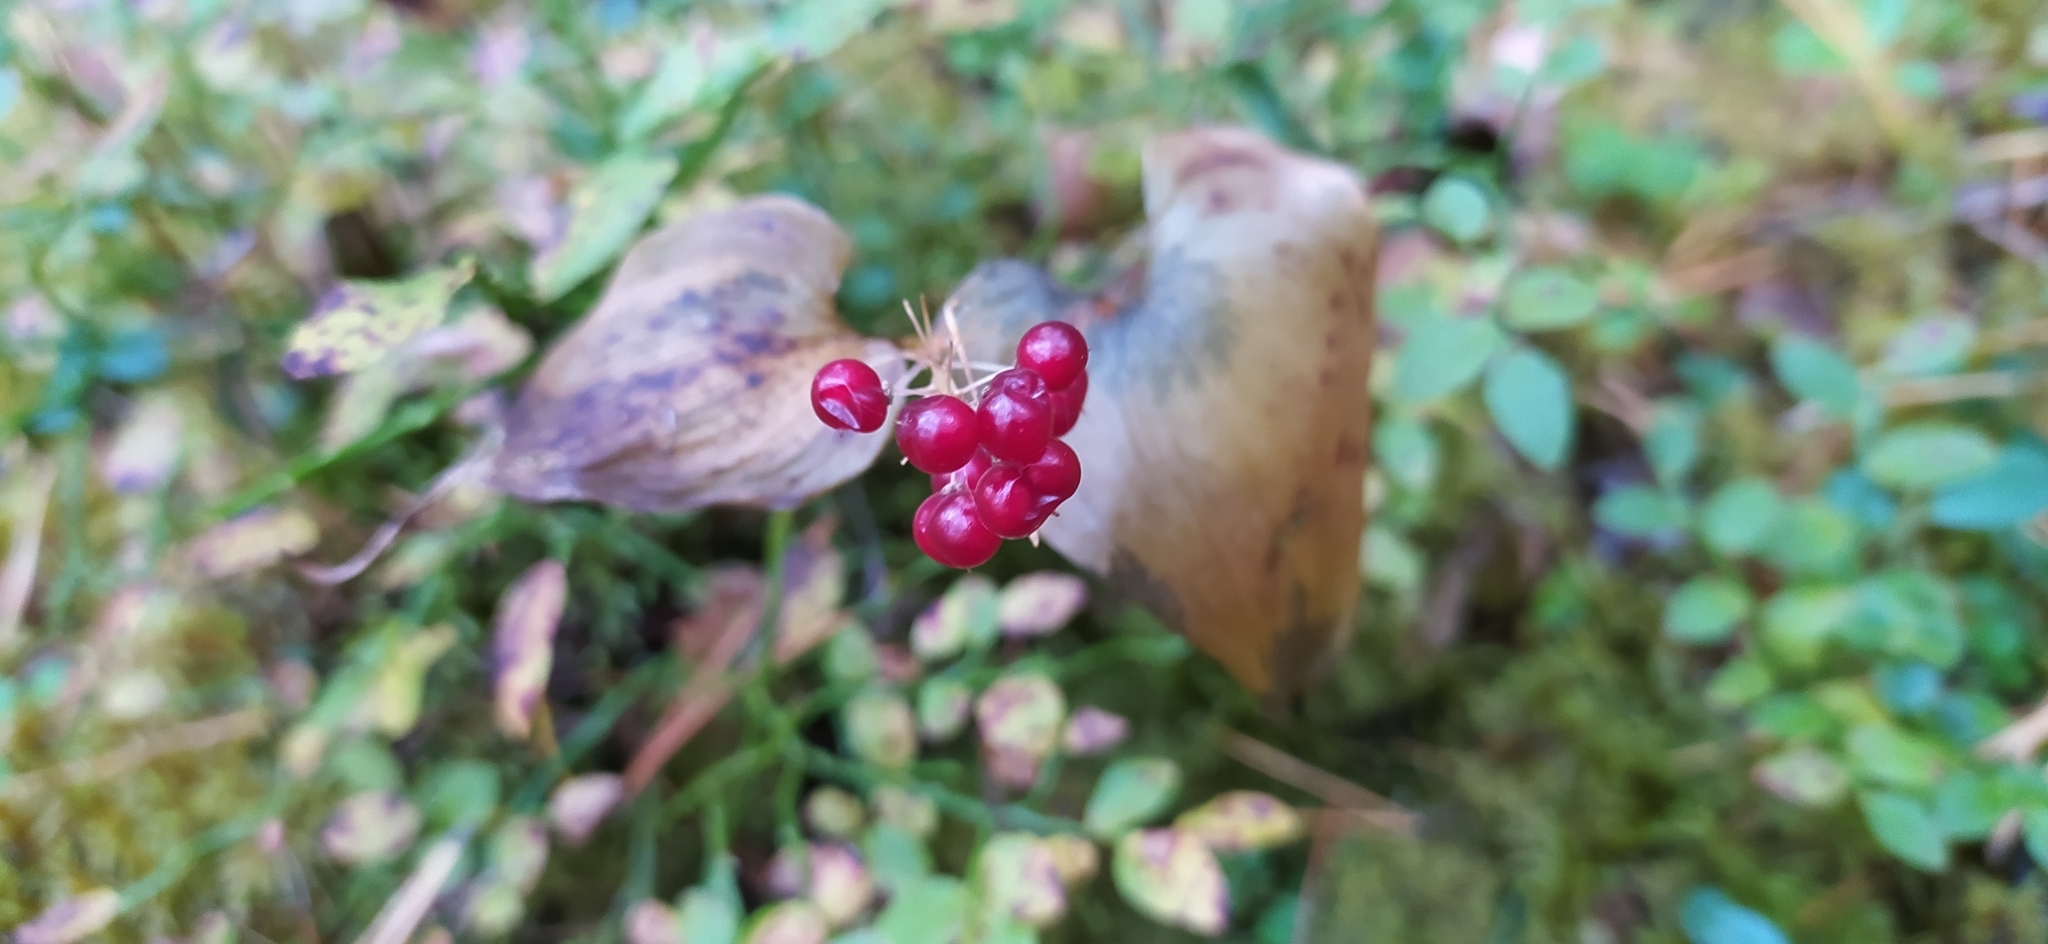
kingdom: Plantae
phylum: Tracheophyta
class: Liliopsida
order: Asparagales
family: Asparagaceae
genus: Maianthemum
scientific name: Maianthemum bifolium
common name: May lily
